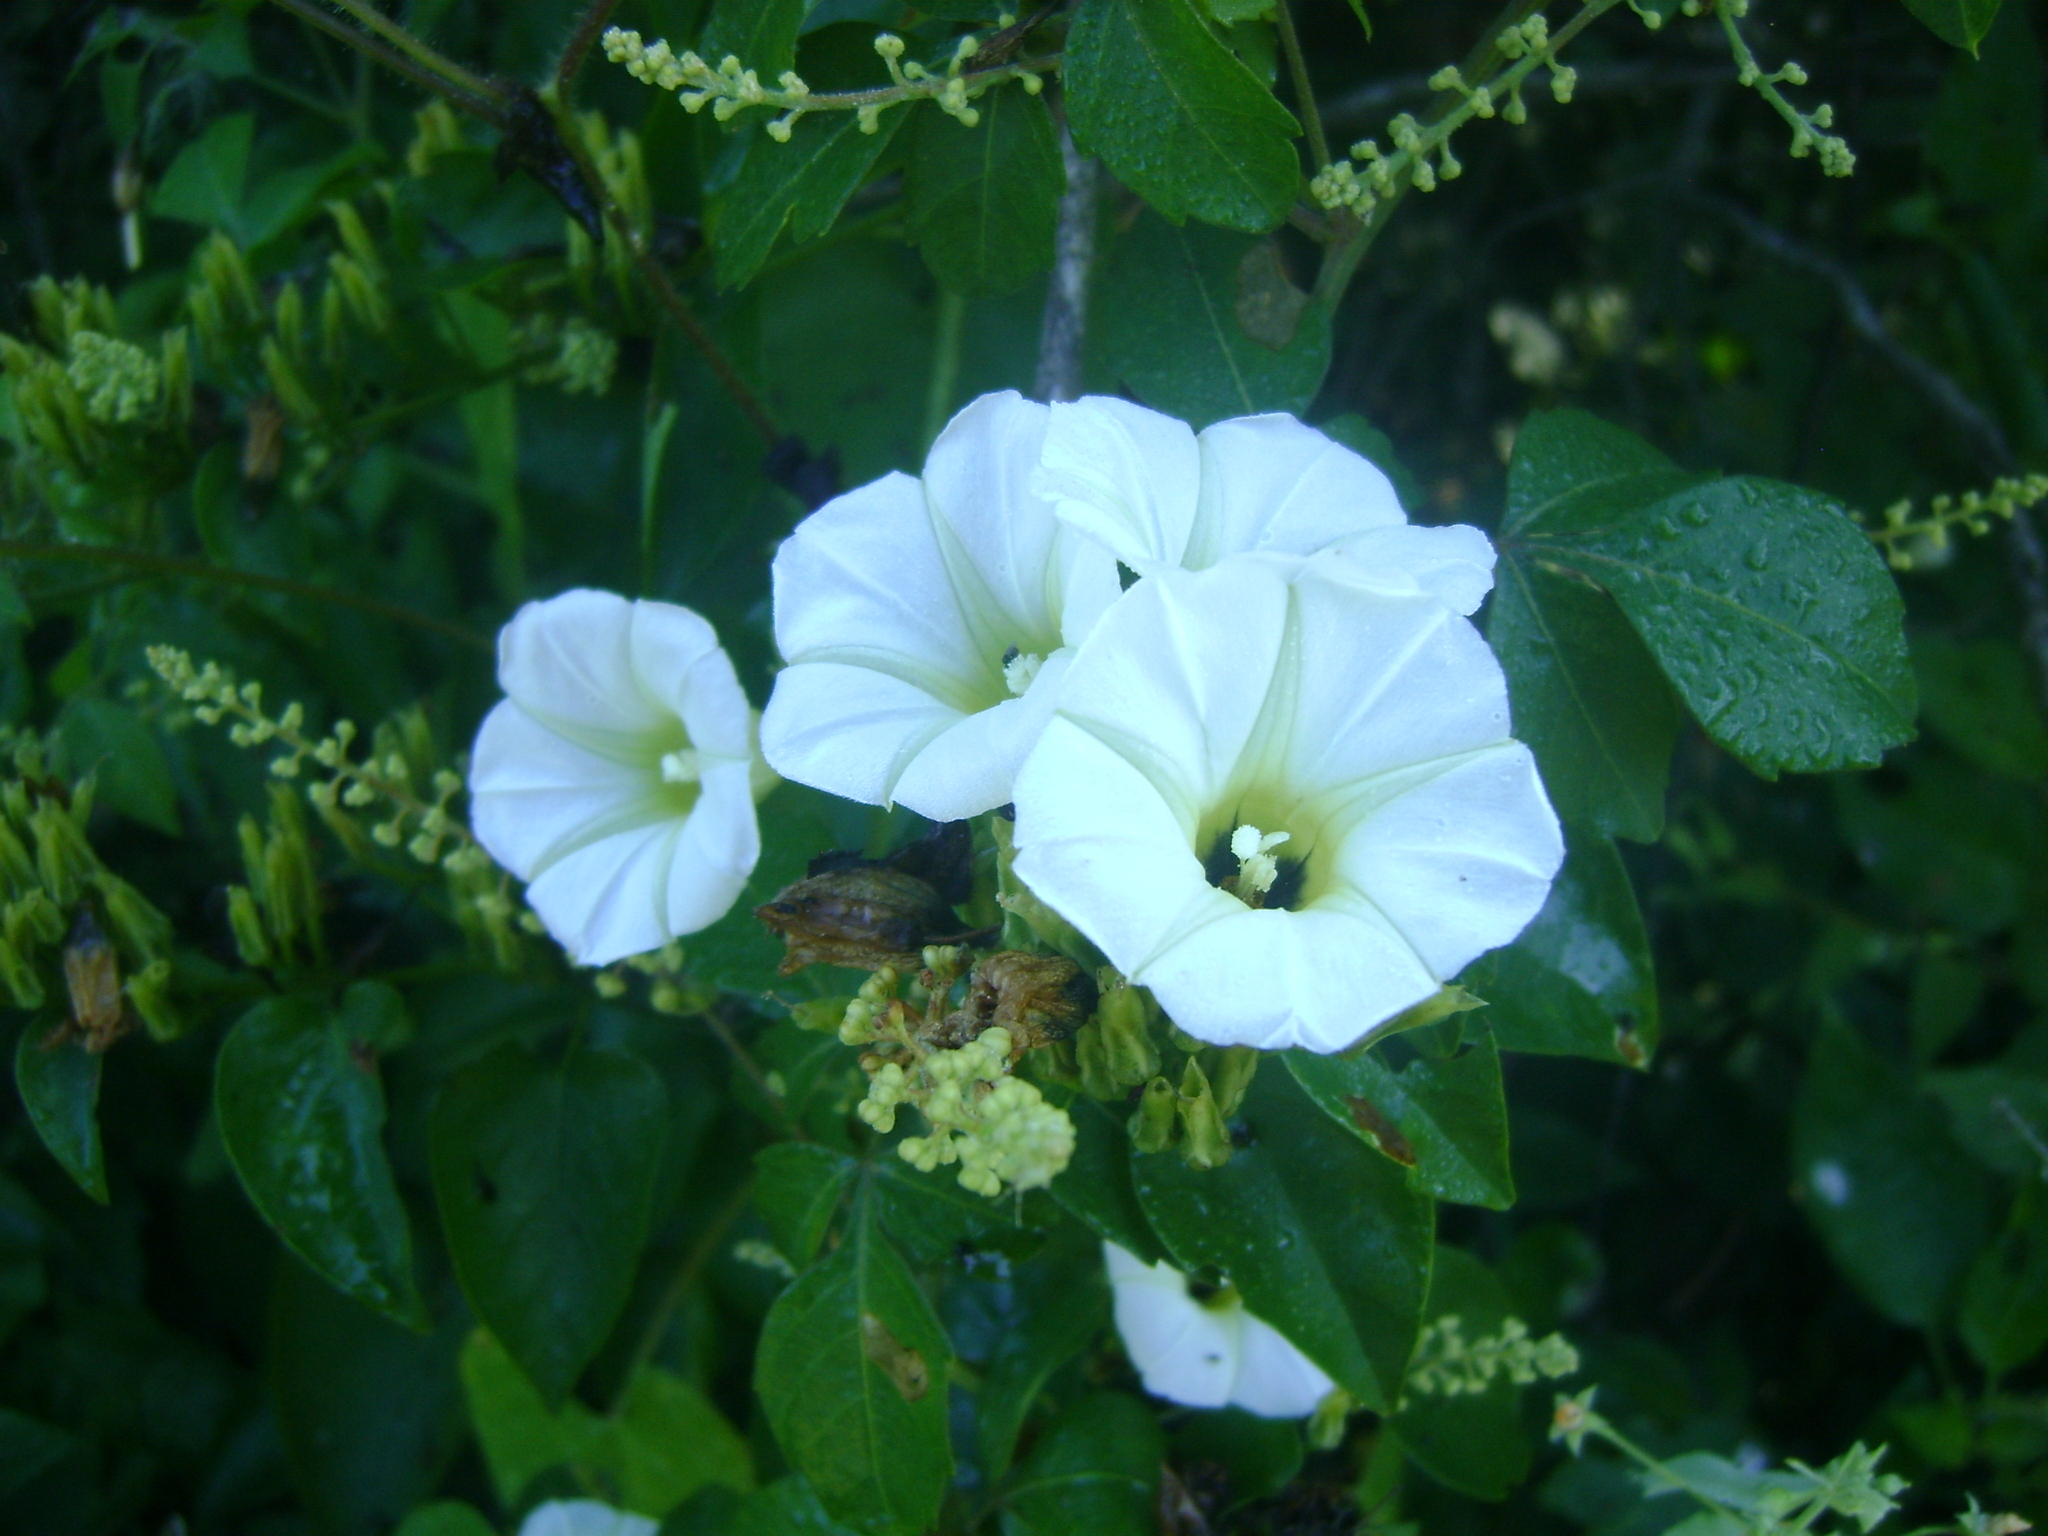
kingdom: Plantae
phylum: Tracheophyta
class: Magnoliopsida
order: Solanales
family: Convolvulaceae
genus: Ipomoea
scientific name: Ipomoea corymbosa
